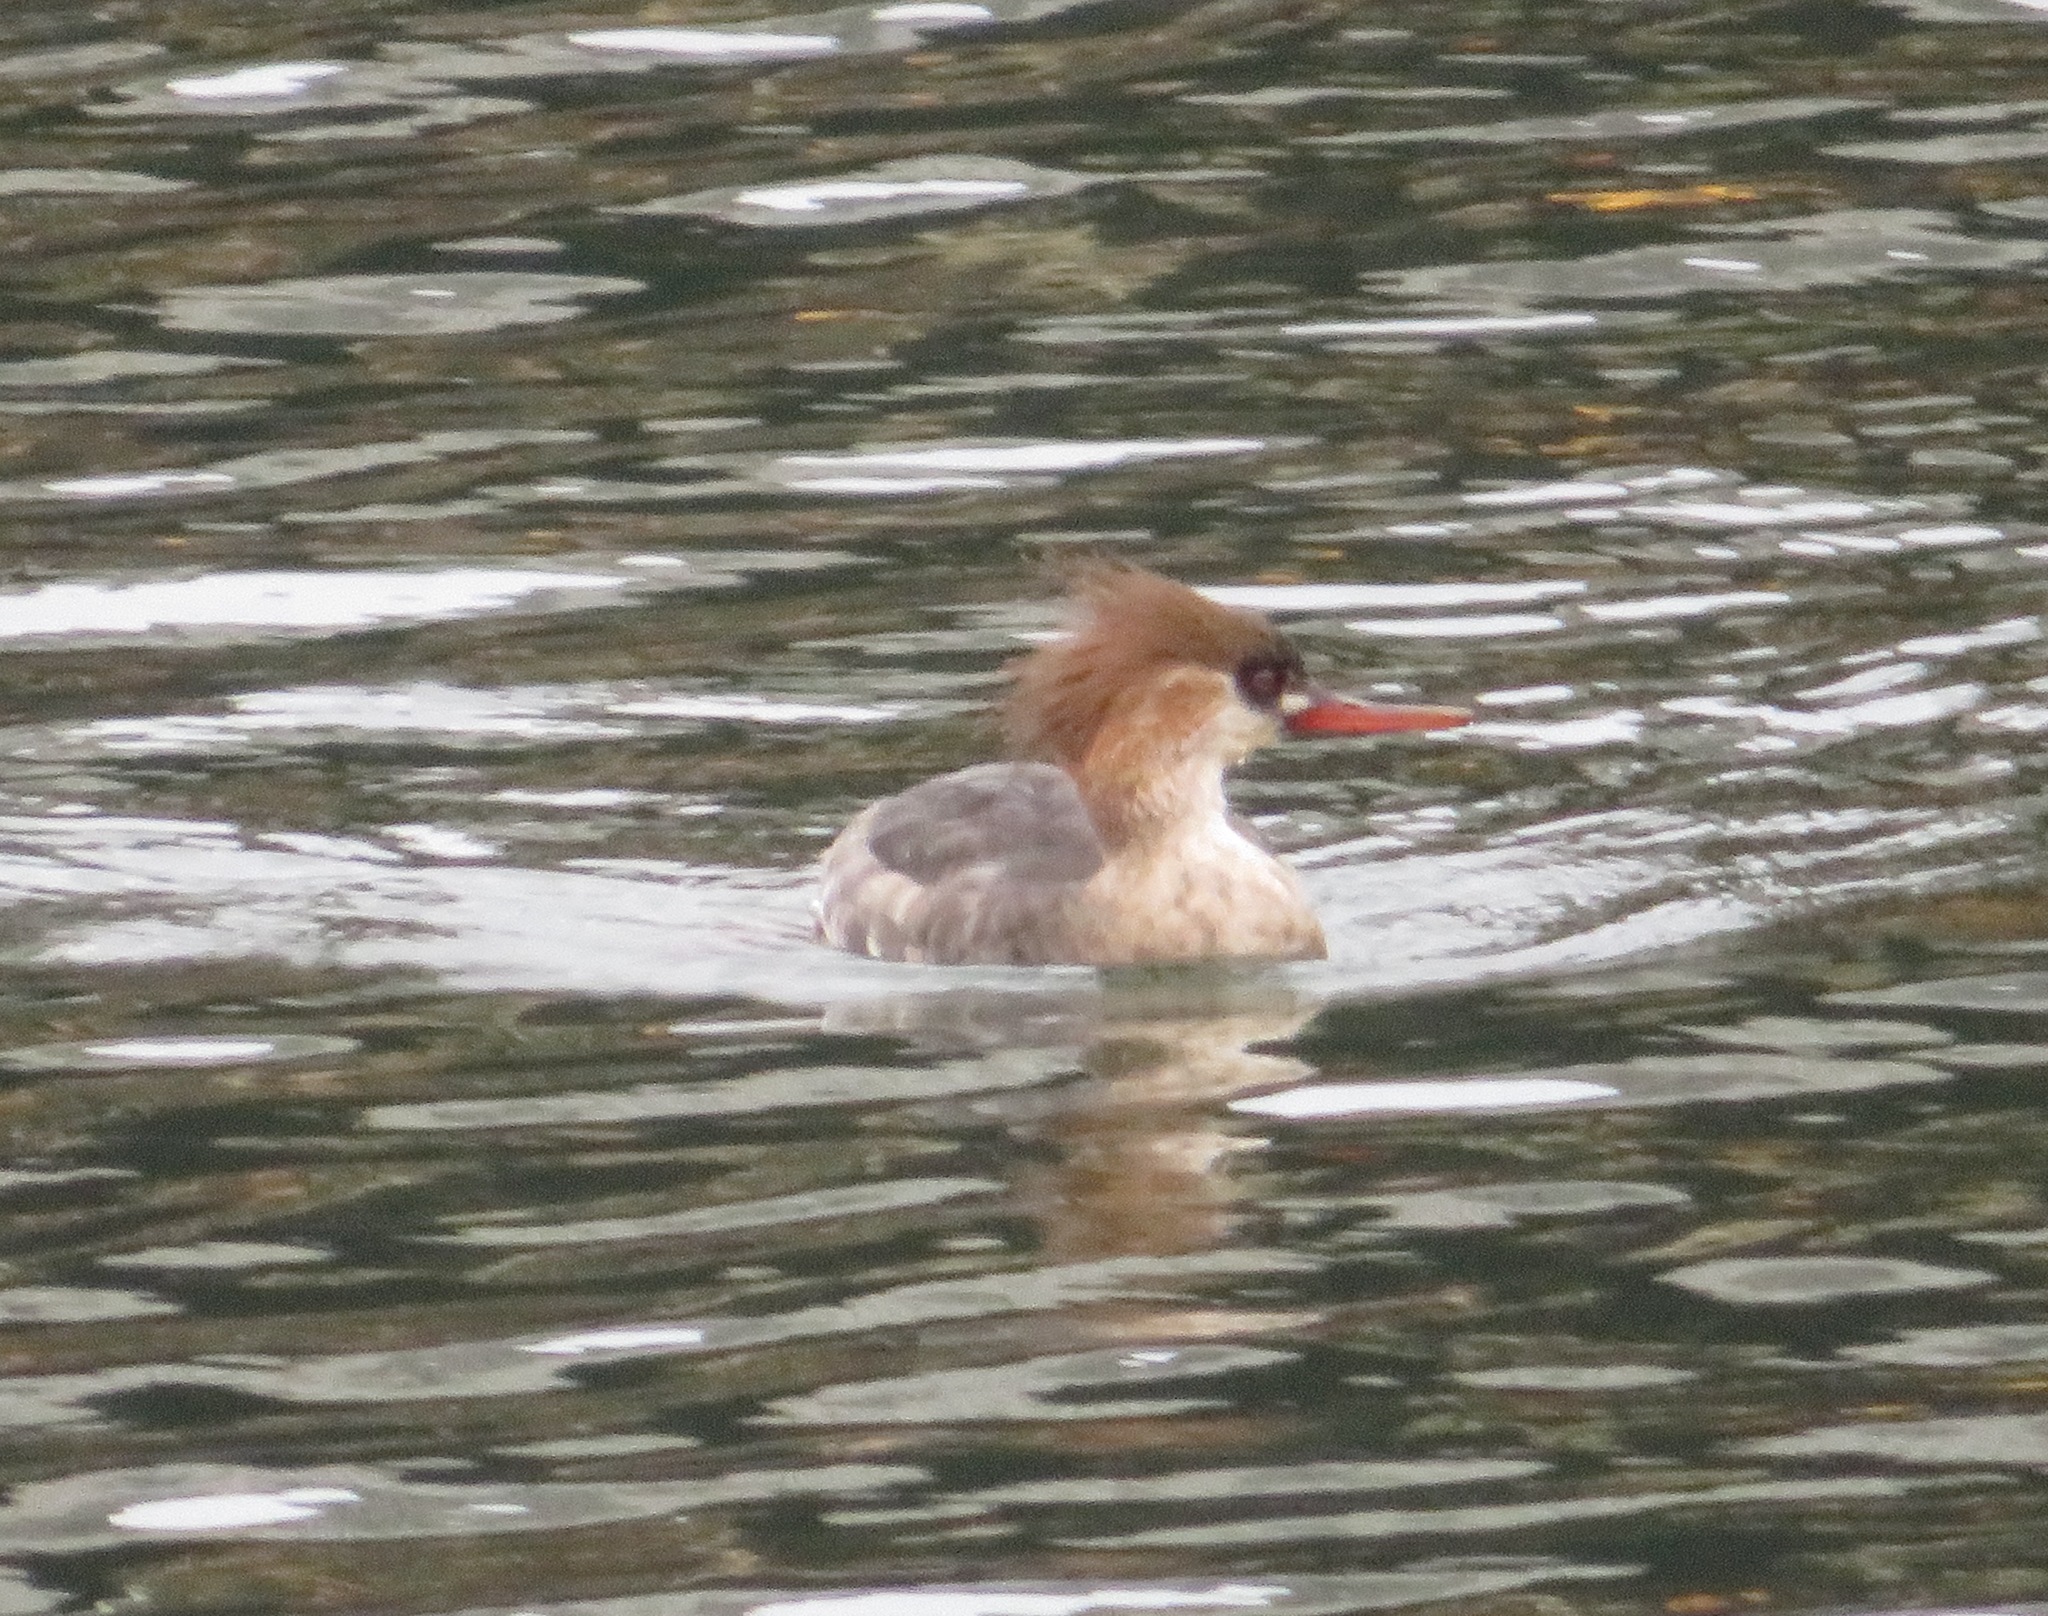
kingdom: Animalia
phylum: Chordata
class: Aves
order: Anseriformes
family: Anatidae
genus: Mergus
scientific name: Mergus serrator
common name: Red-breasted merganser
